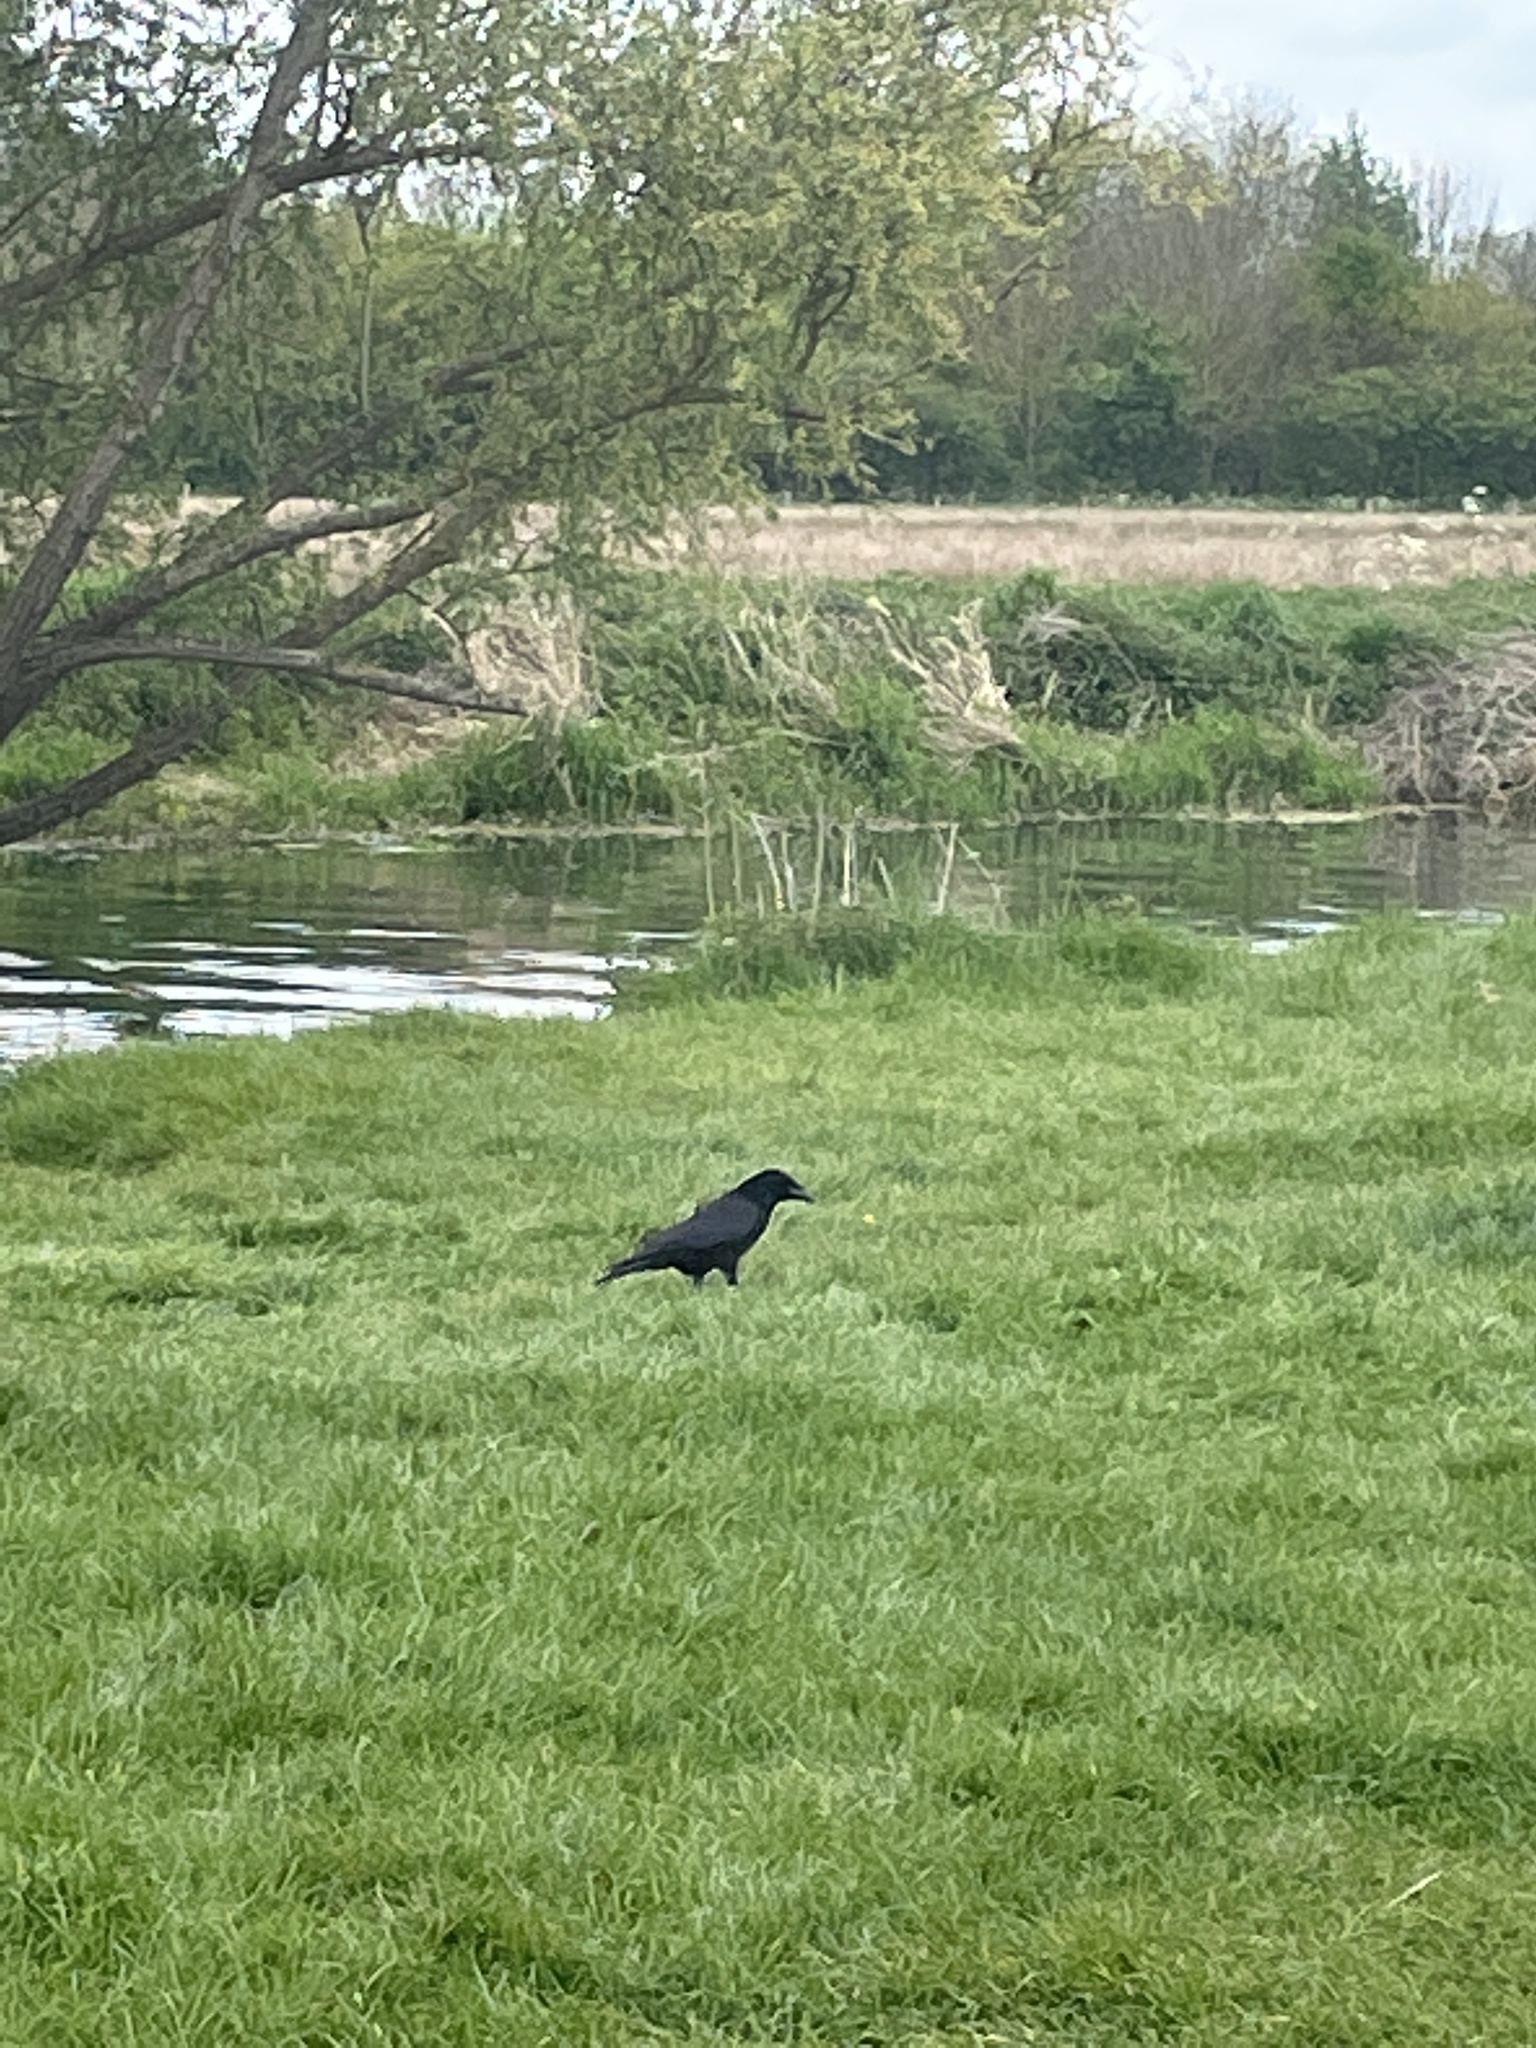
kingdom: Animalia
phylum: Chordata
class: Aves
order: Passeriformes
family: Corvidae
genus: Corvus
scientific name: Corvus corone
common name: Carrion crow
